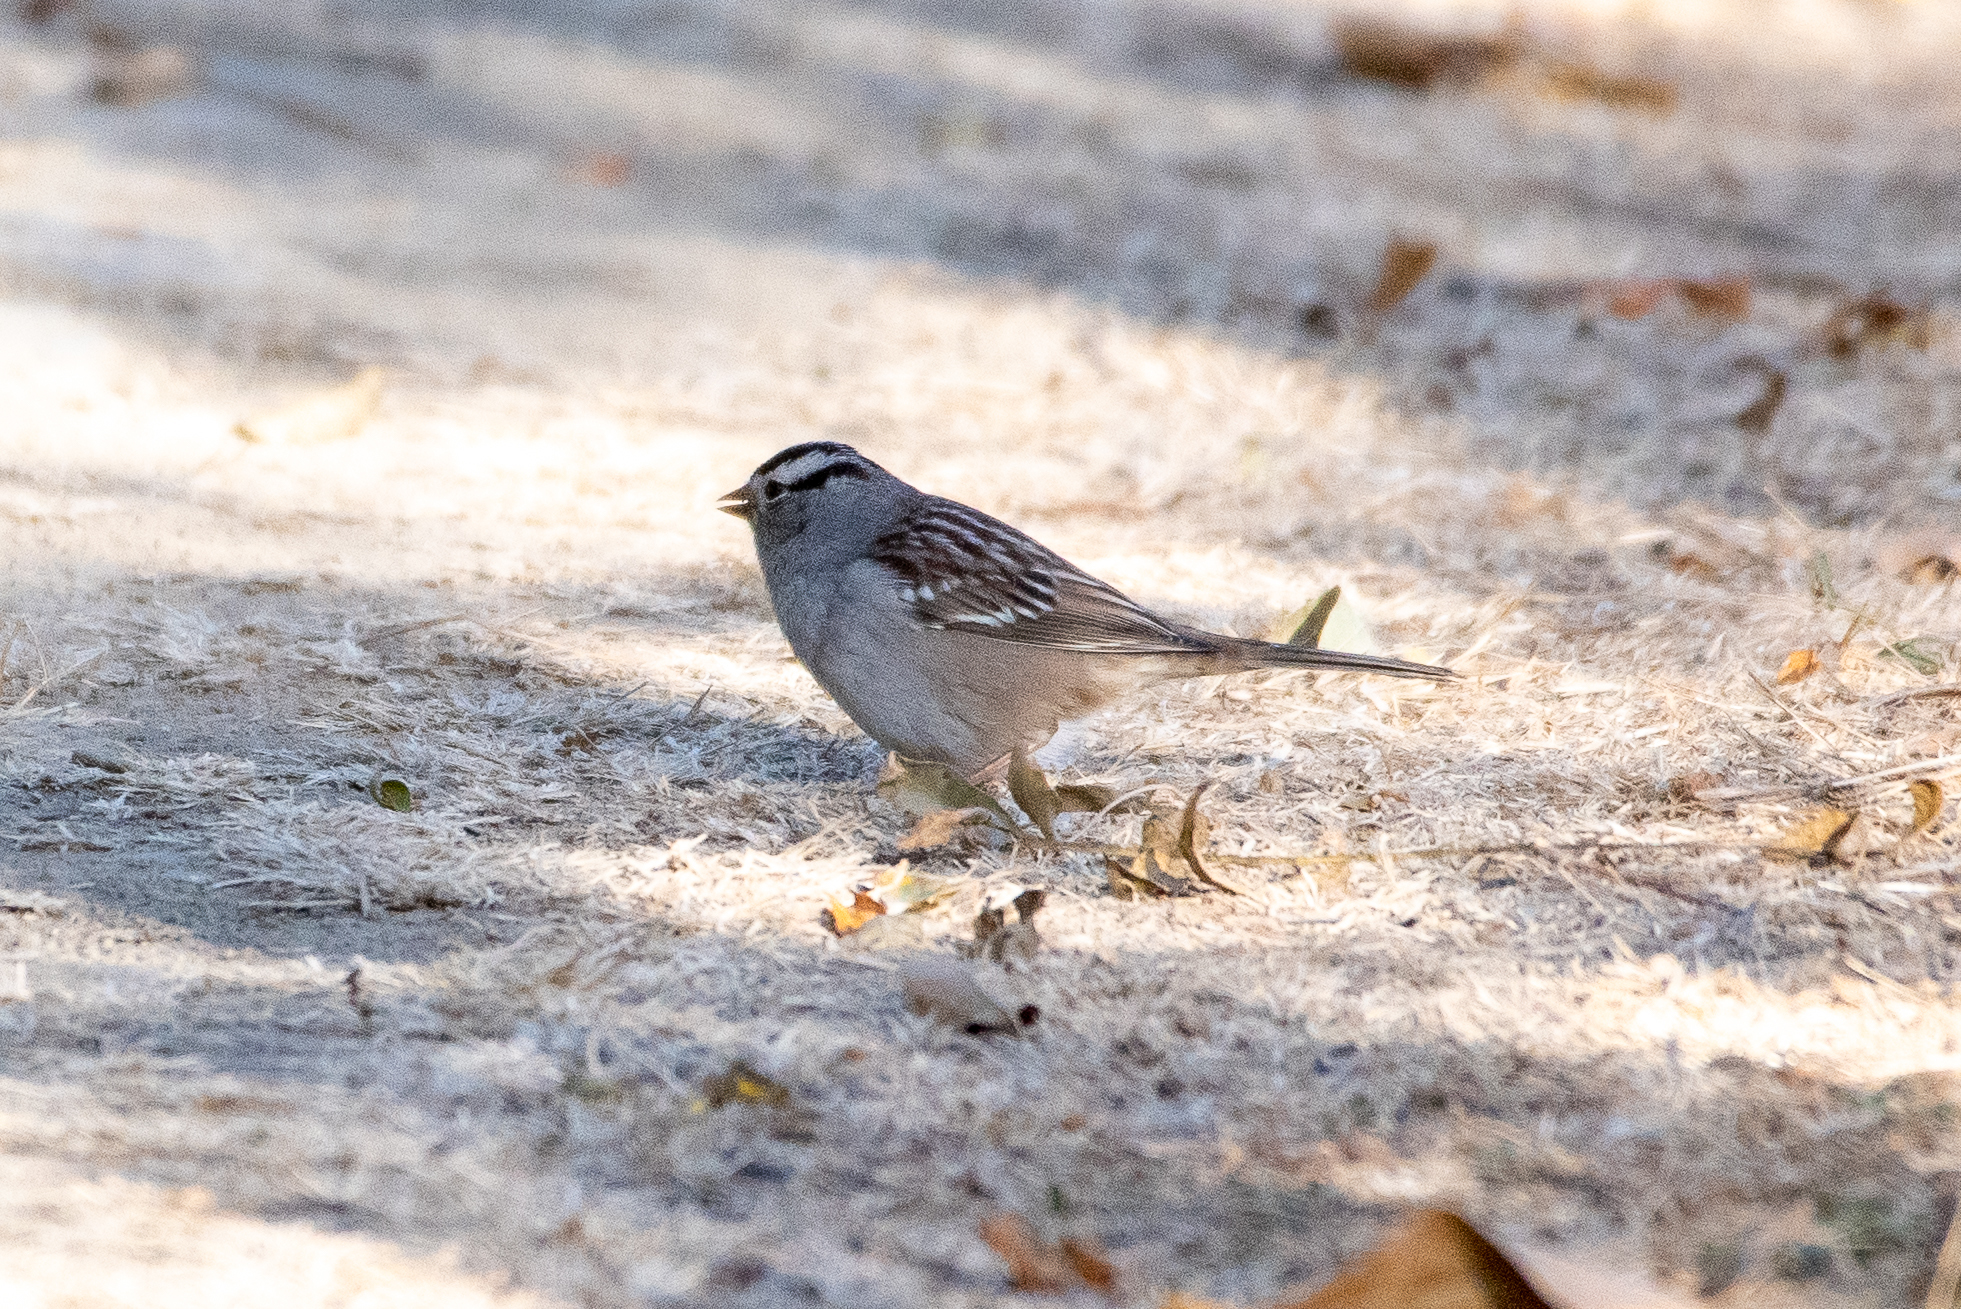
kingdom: Animalia
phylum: Chordata
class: Aves
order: Passeriformes
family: Passerellidae
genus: Zonotrichia
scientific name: Zonotrichia leucophrys
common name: White-crowned sparrow
